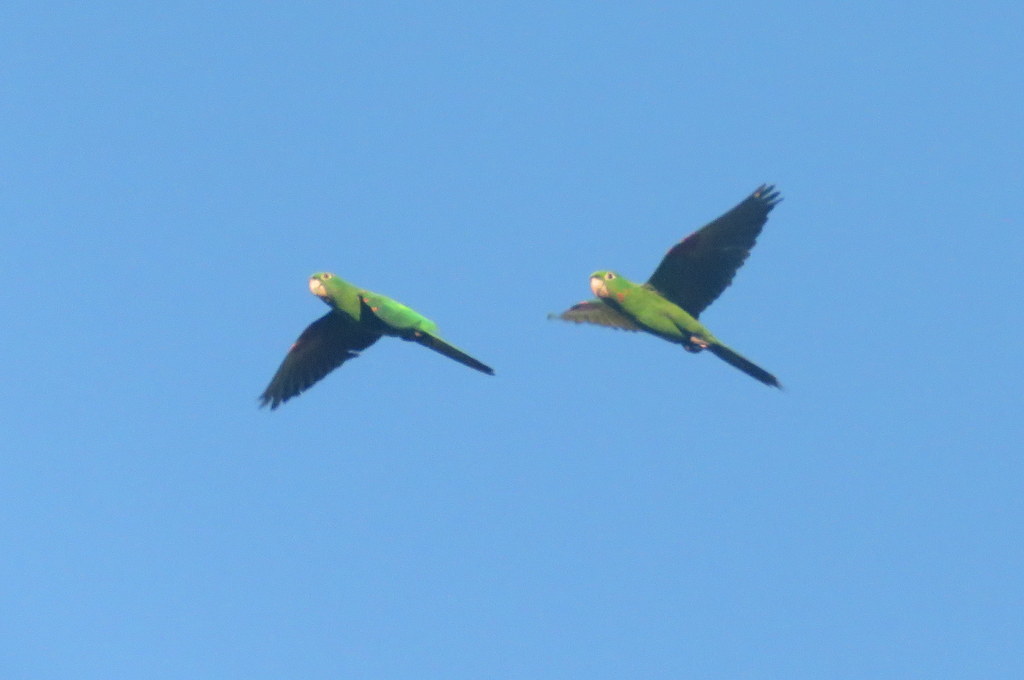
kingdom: Animalia
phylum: Chordata
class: Aves
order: Psittaciformes
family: Psittacidae
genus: Aratinga
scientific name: Aratinga leucophthalma
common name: White-eyed parakeet
